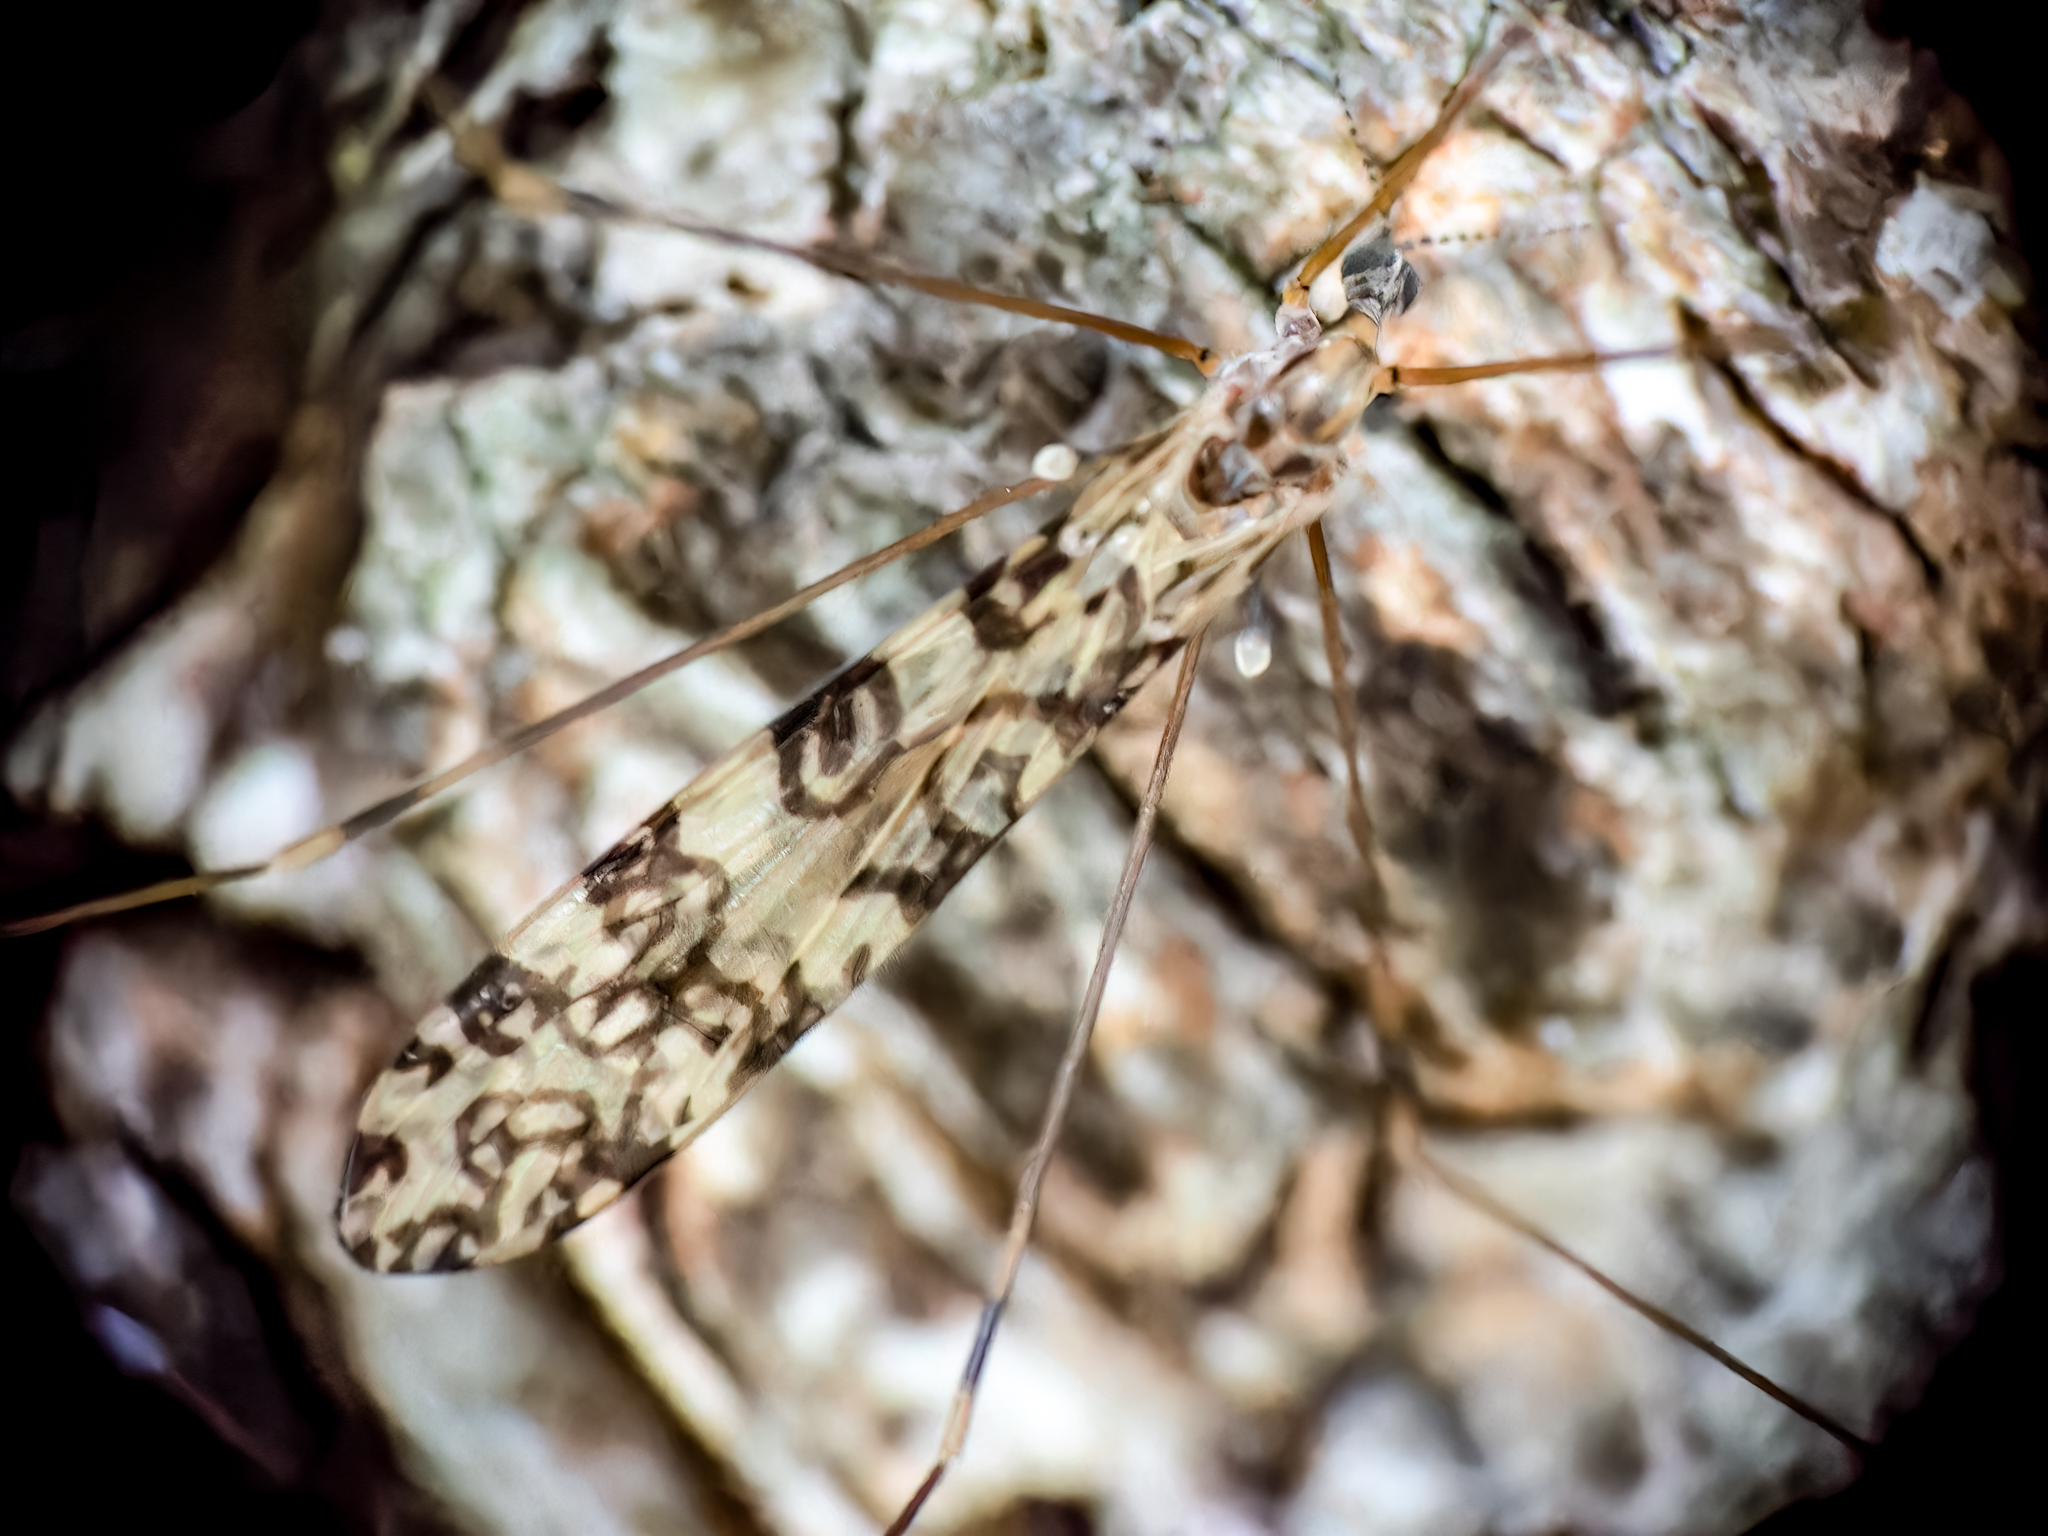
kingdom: Animalia
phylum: Arthropoda
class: Insecta
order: Diptera
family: Limoniidae
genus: Limonia
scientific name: Limonia annulata
